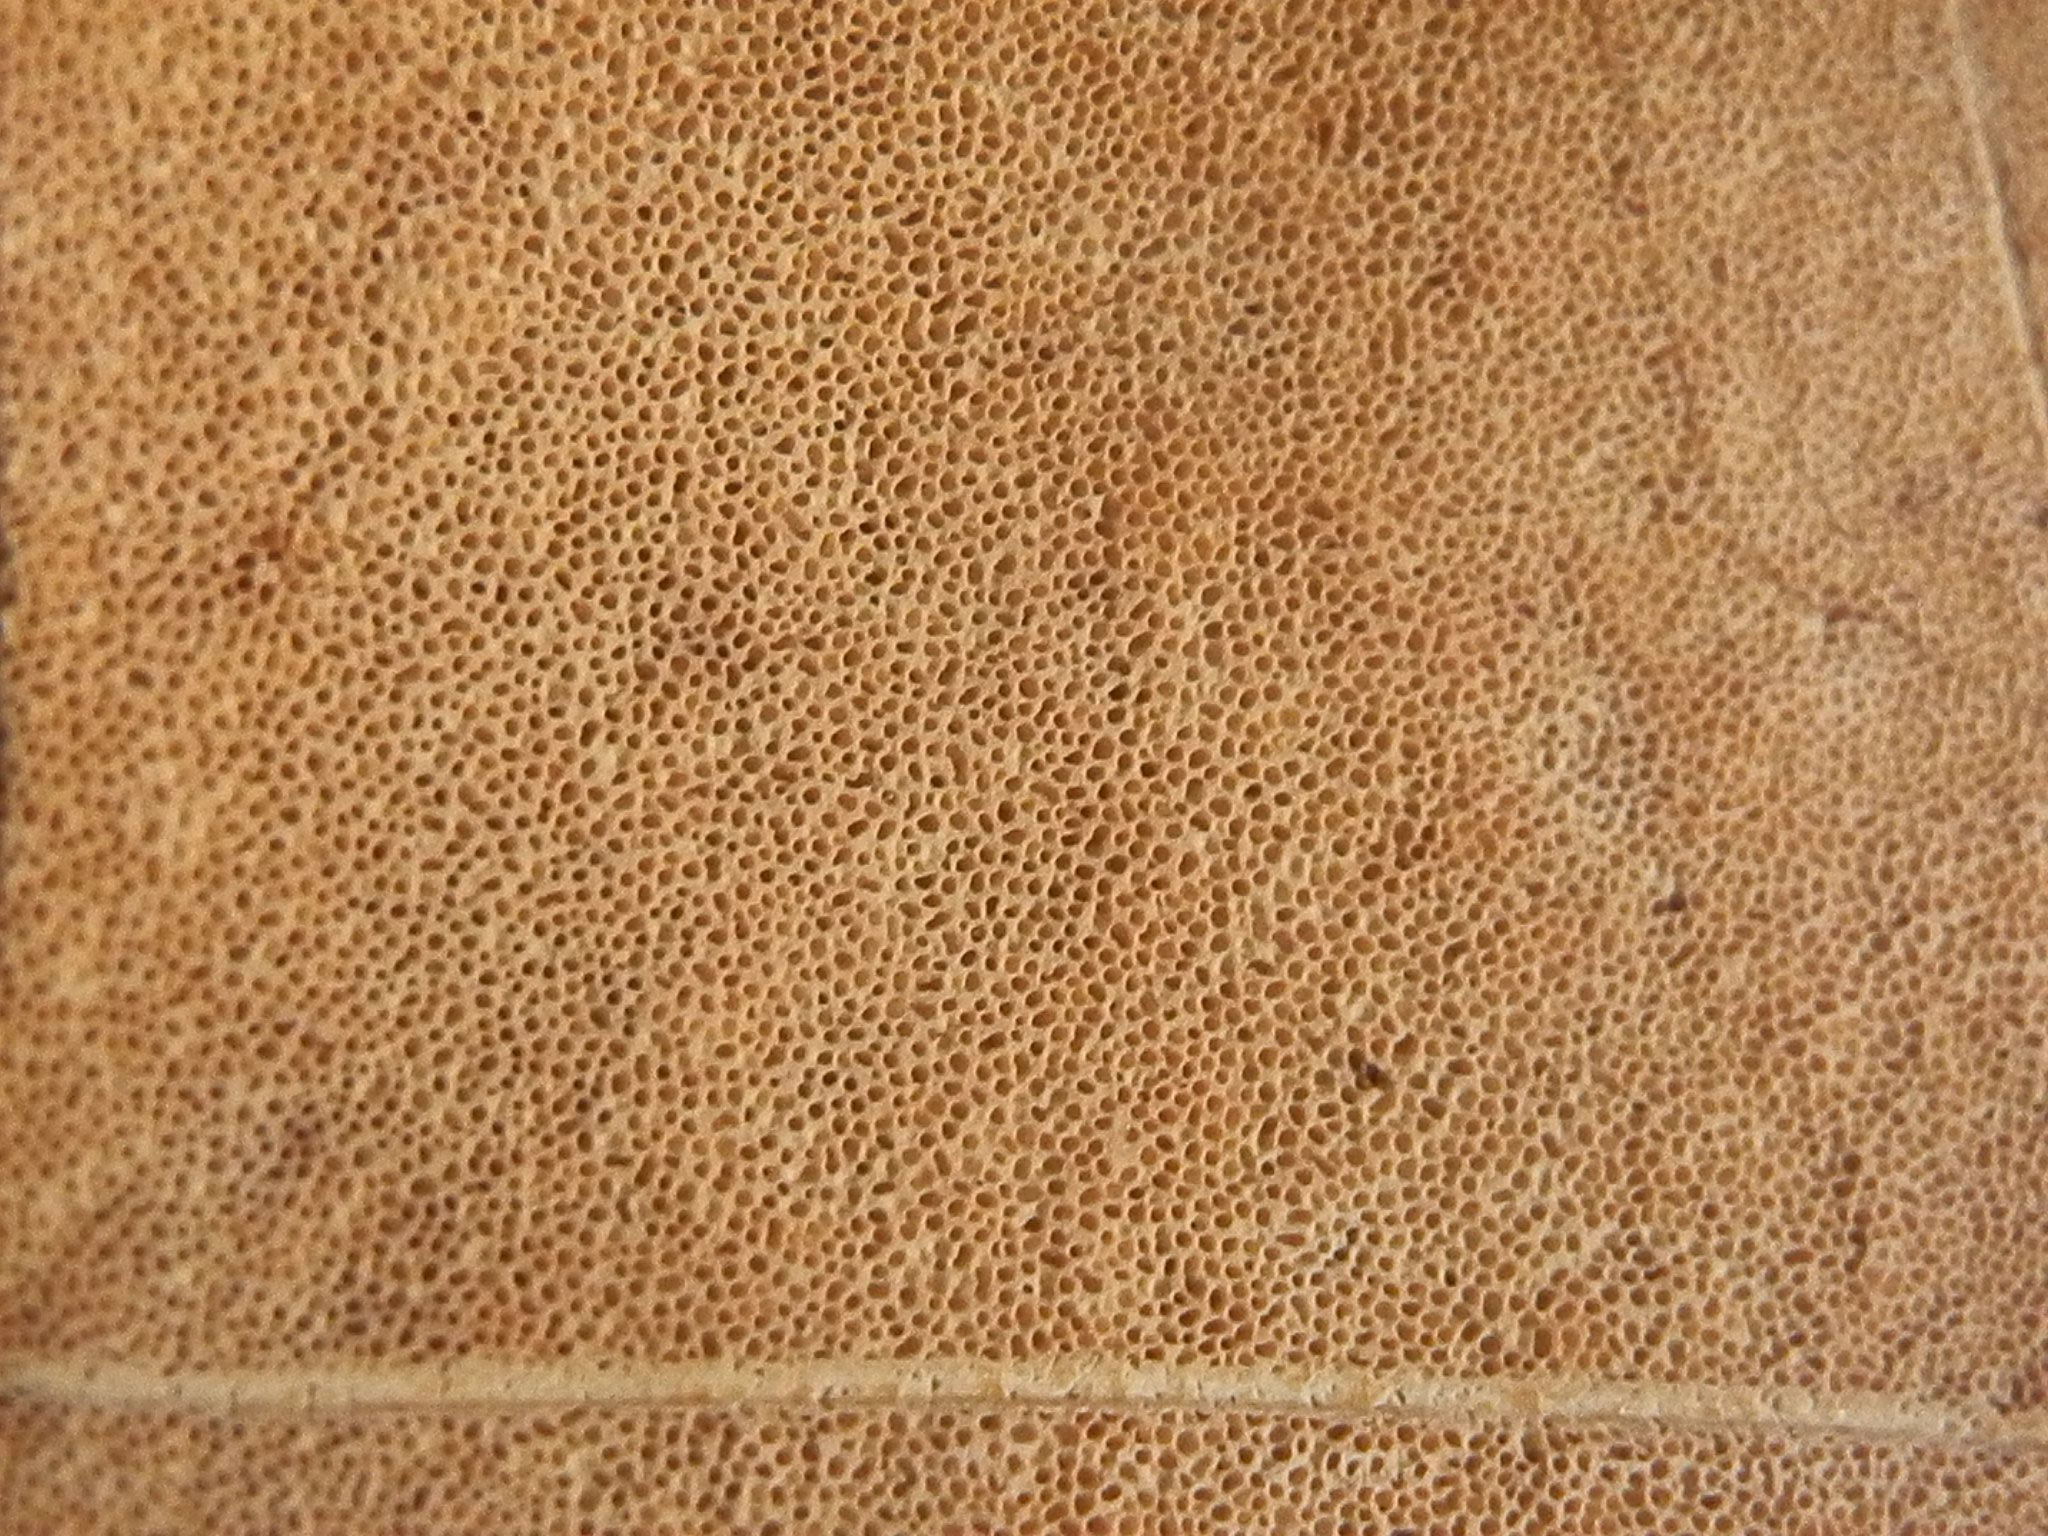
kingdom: Fungi
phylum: Basidiomycota
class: Agaricomycetes
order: Polyporales
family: Fomitopsidaceae
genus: Fomitopsis
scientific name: Fomitopsis schrenkii
